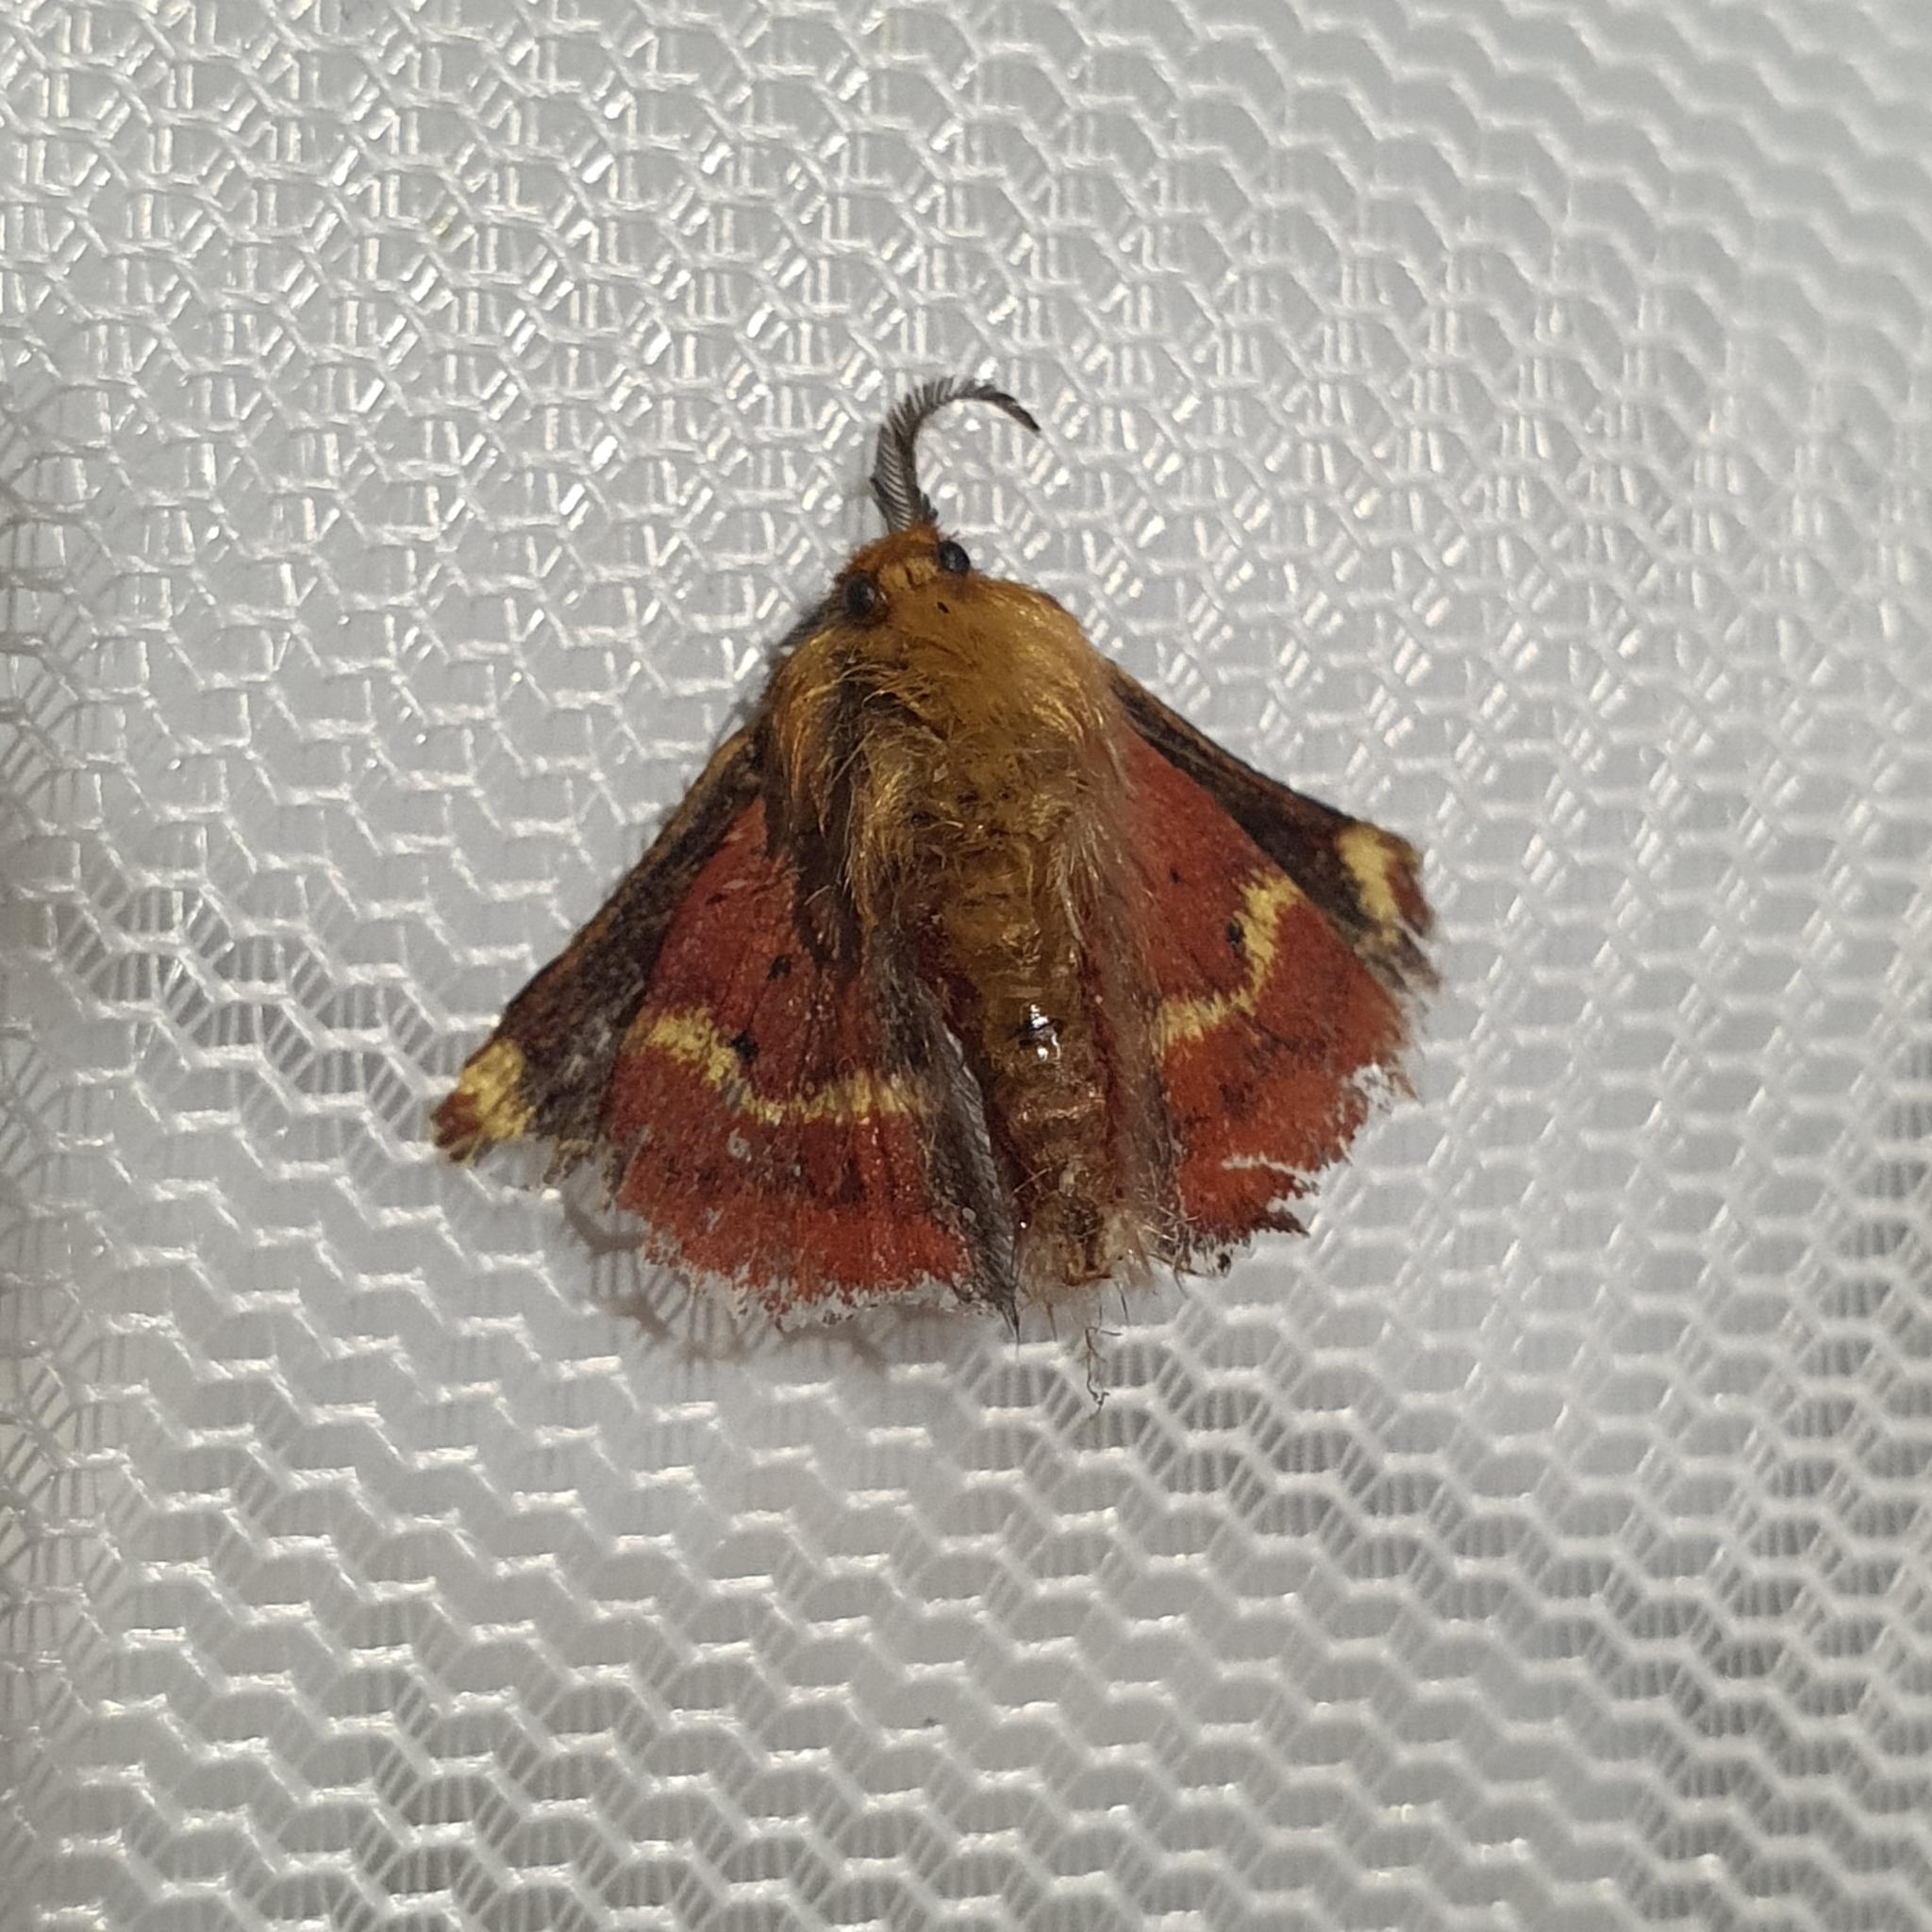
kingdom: Animalia
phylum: Arthropoda
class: Insecta
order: Lepidoptera
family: Anthelidae
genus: Nataxa
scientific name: Nataxa flavescens
